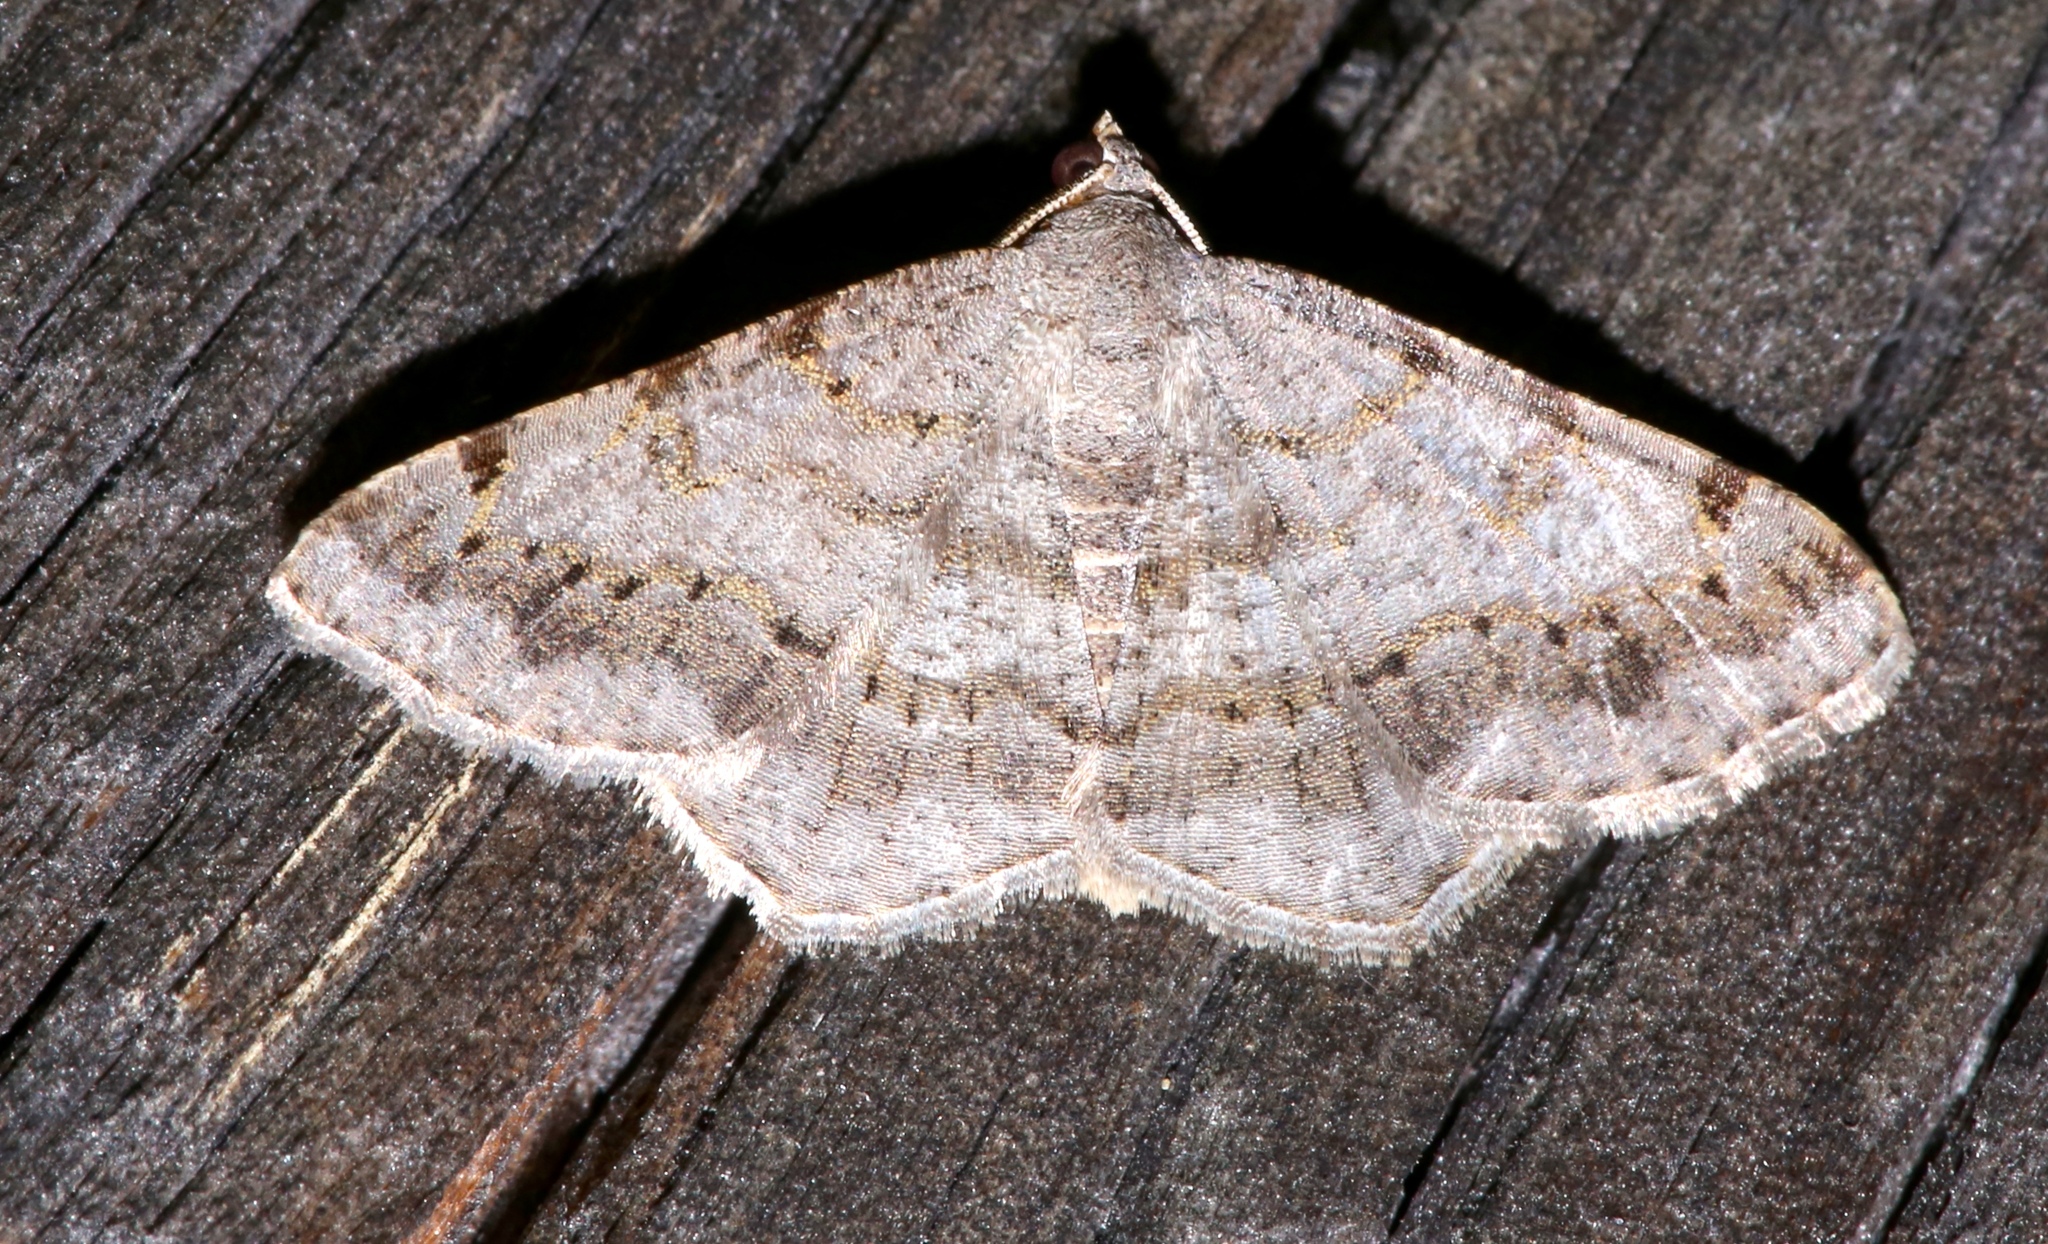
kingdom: Animalia
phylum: Arthropoda
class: Insecta
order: Lepidoptera
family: Geometridae
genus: Digrammia
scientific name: Digrammia ocellinata
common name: Faint-spotted angle
